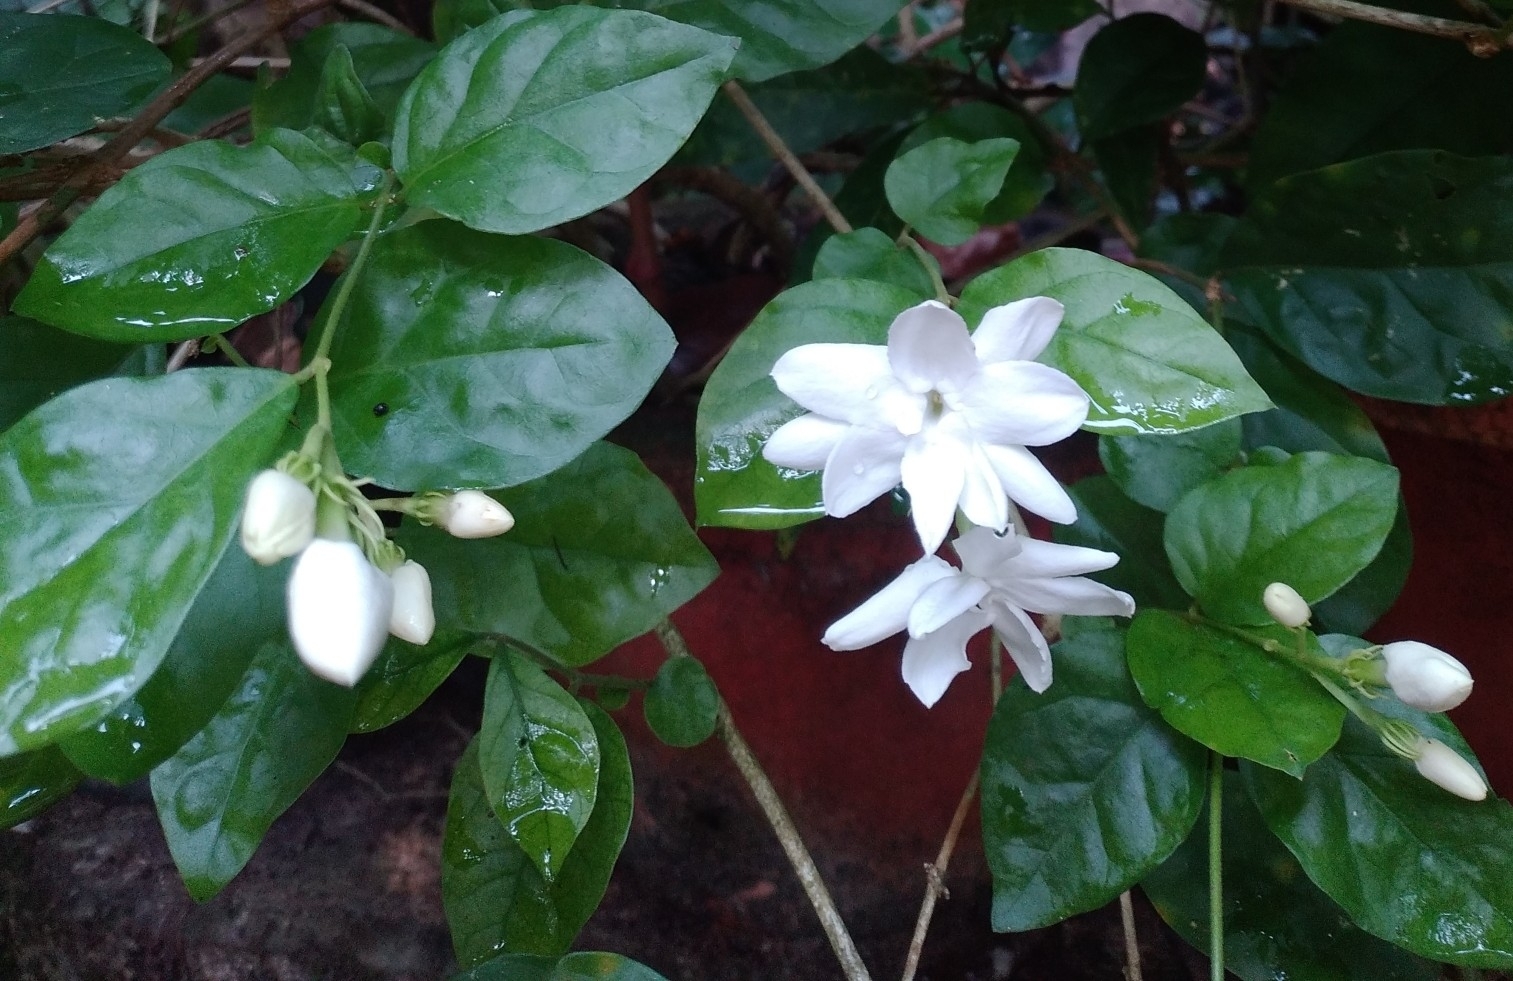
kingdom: Plantae
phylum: Tracheophyta
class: Magnoliopsida
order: Lamiales
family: Oleaceae
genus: Jasminum
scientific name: Jasminum sambac
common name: Arabian jasmine
